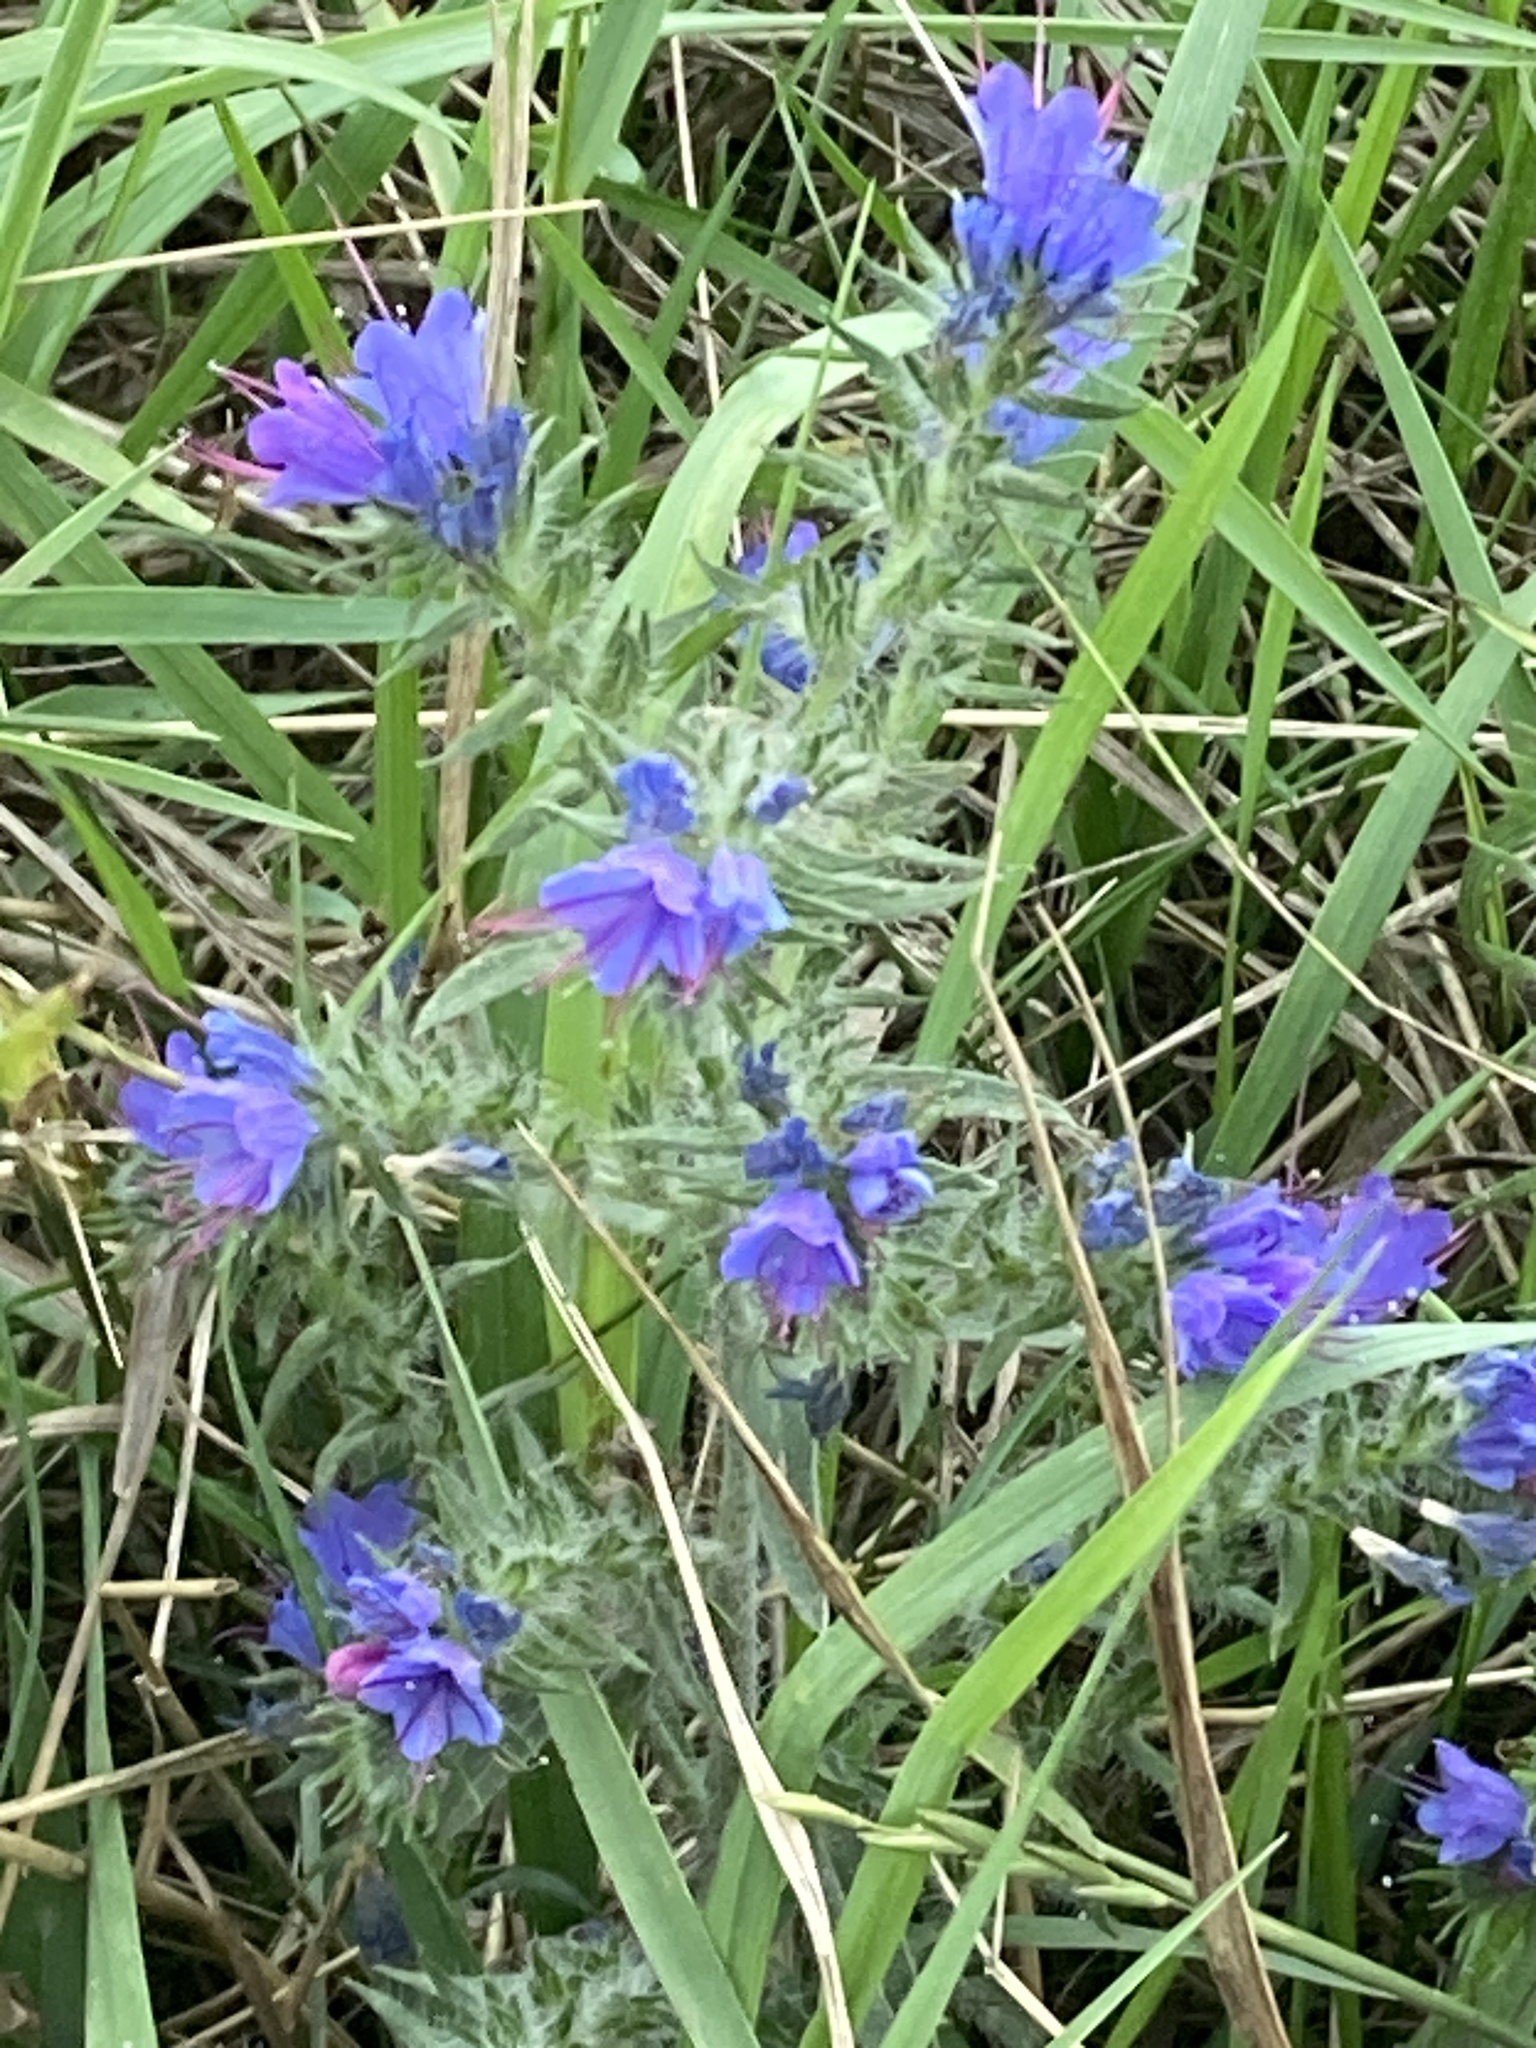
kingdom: Plantae
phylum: Tracheophyta
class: Magnoliopsida
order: Boraginales
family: Boraginaceae
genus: Echium
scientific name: Echium vulgare
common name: Common viper's bugloss
